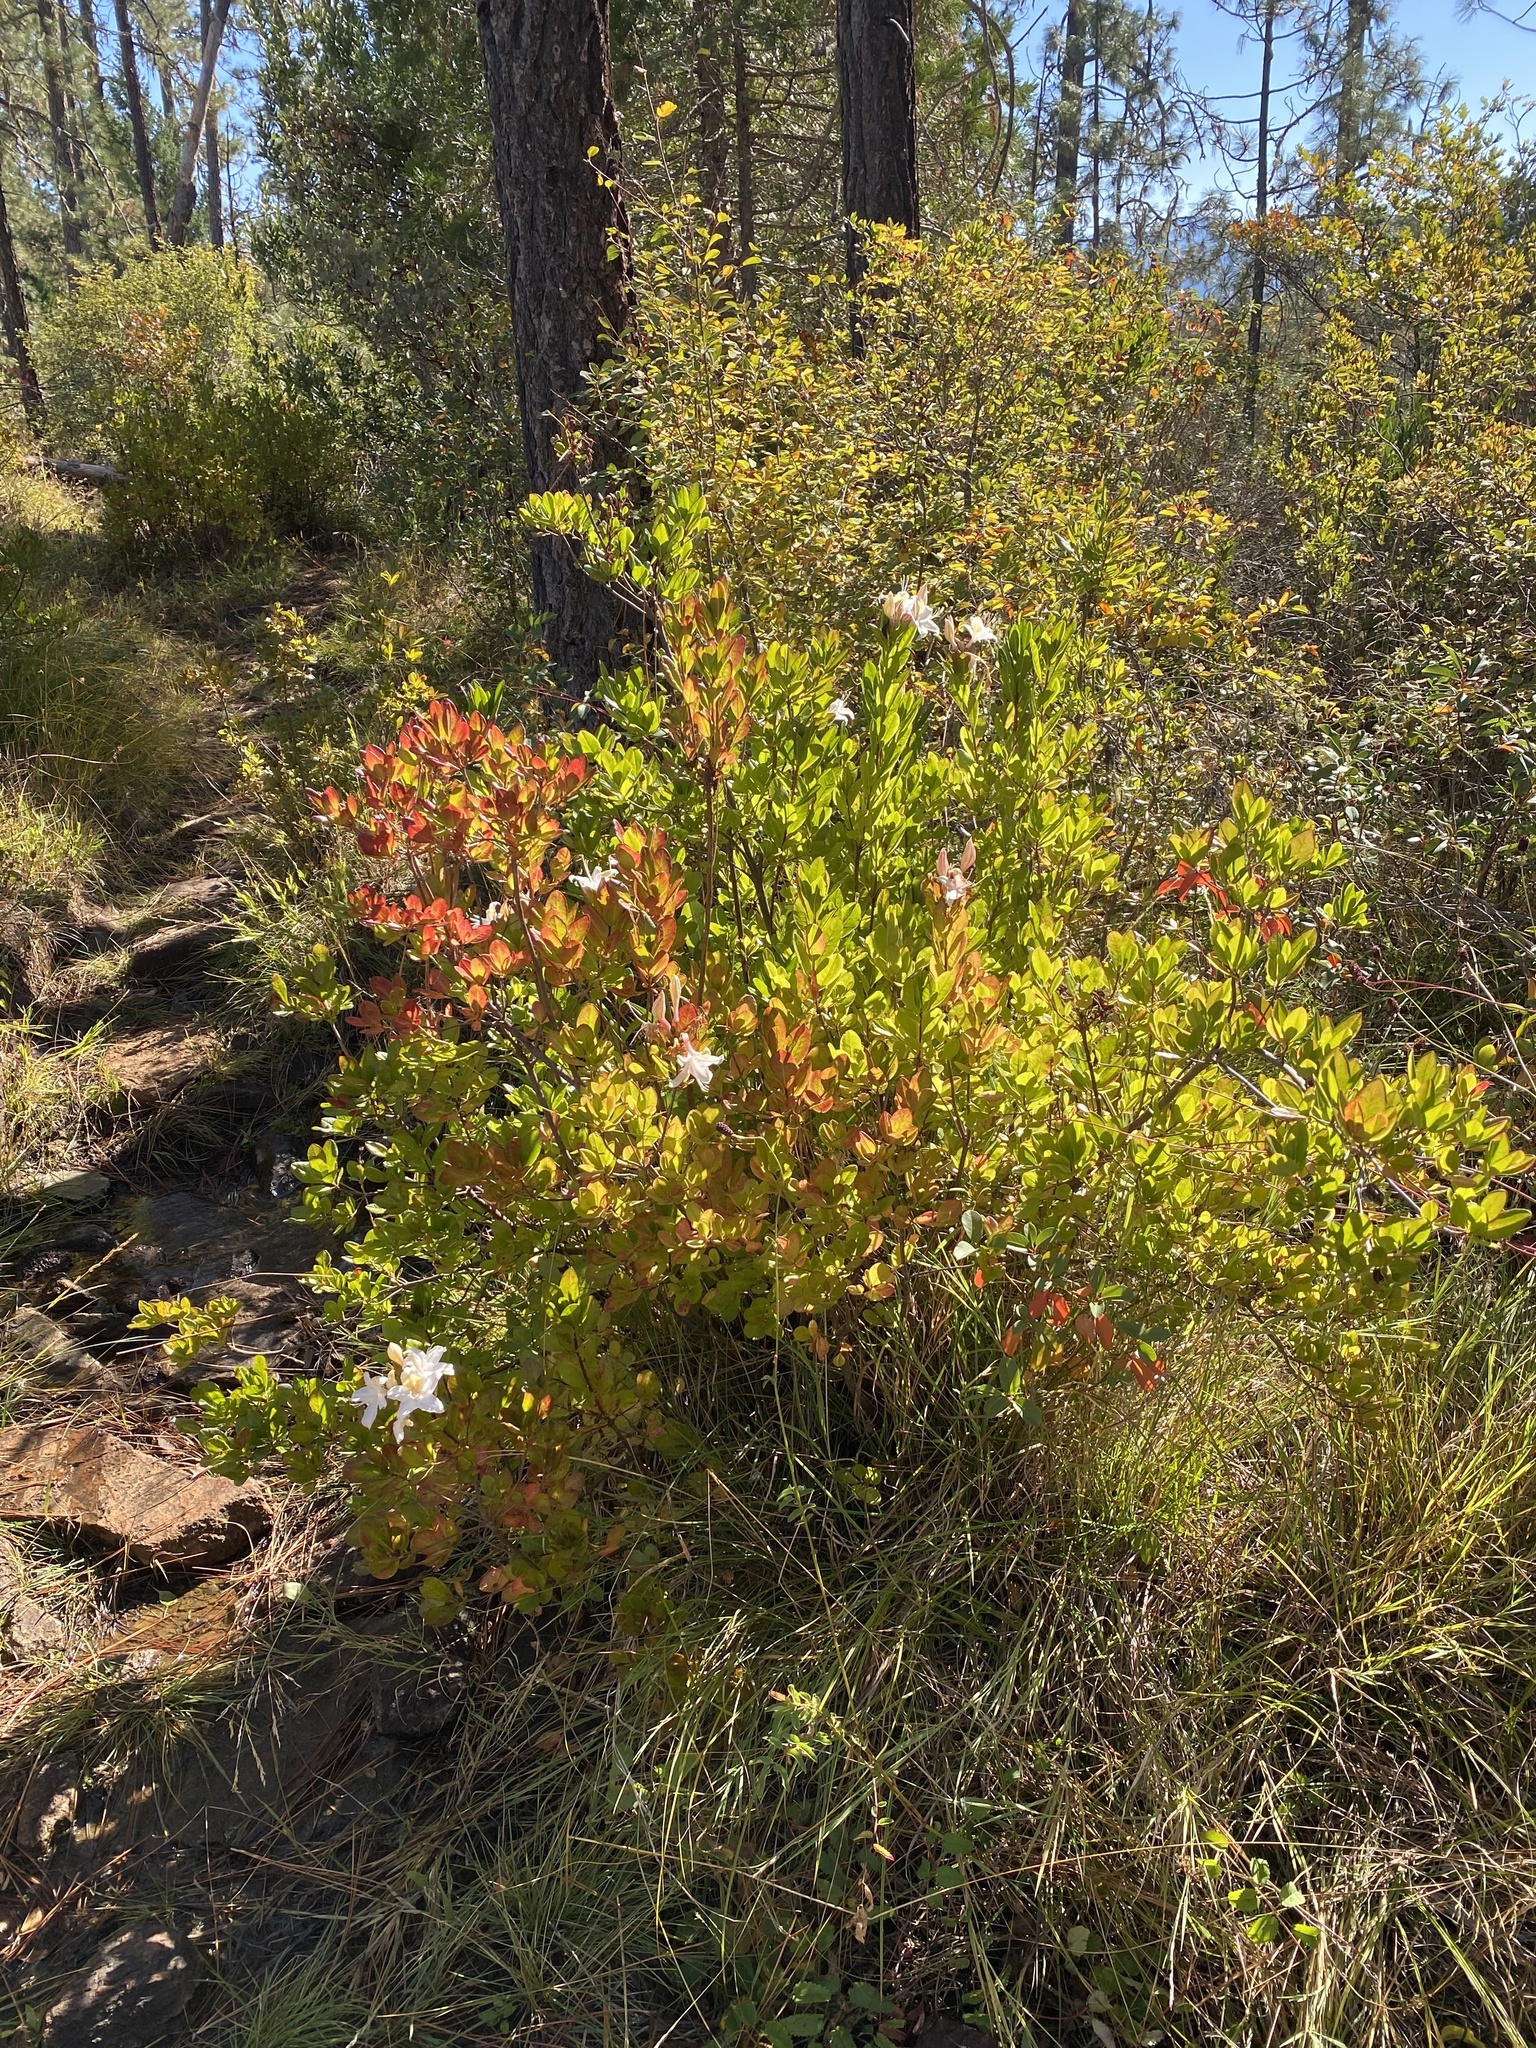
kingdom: Plantae
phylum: Tracheophyta
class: Magnoliopsida
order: Ericales
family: Ericaceae
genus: Rhododendron
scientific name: Rhododendron occidentale
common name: Western azalea
